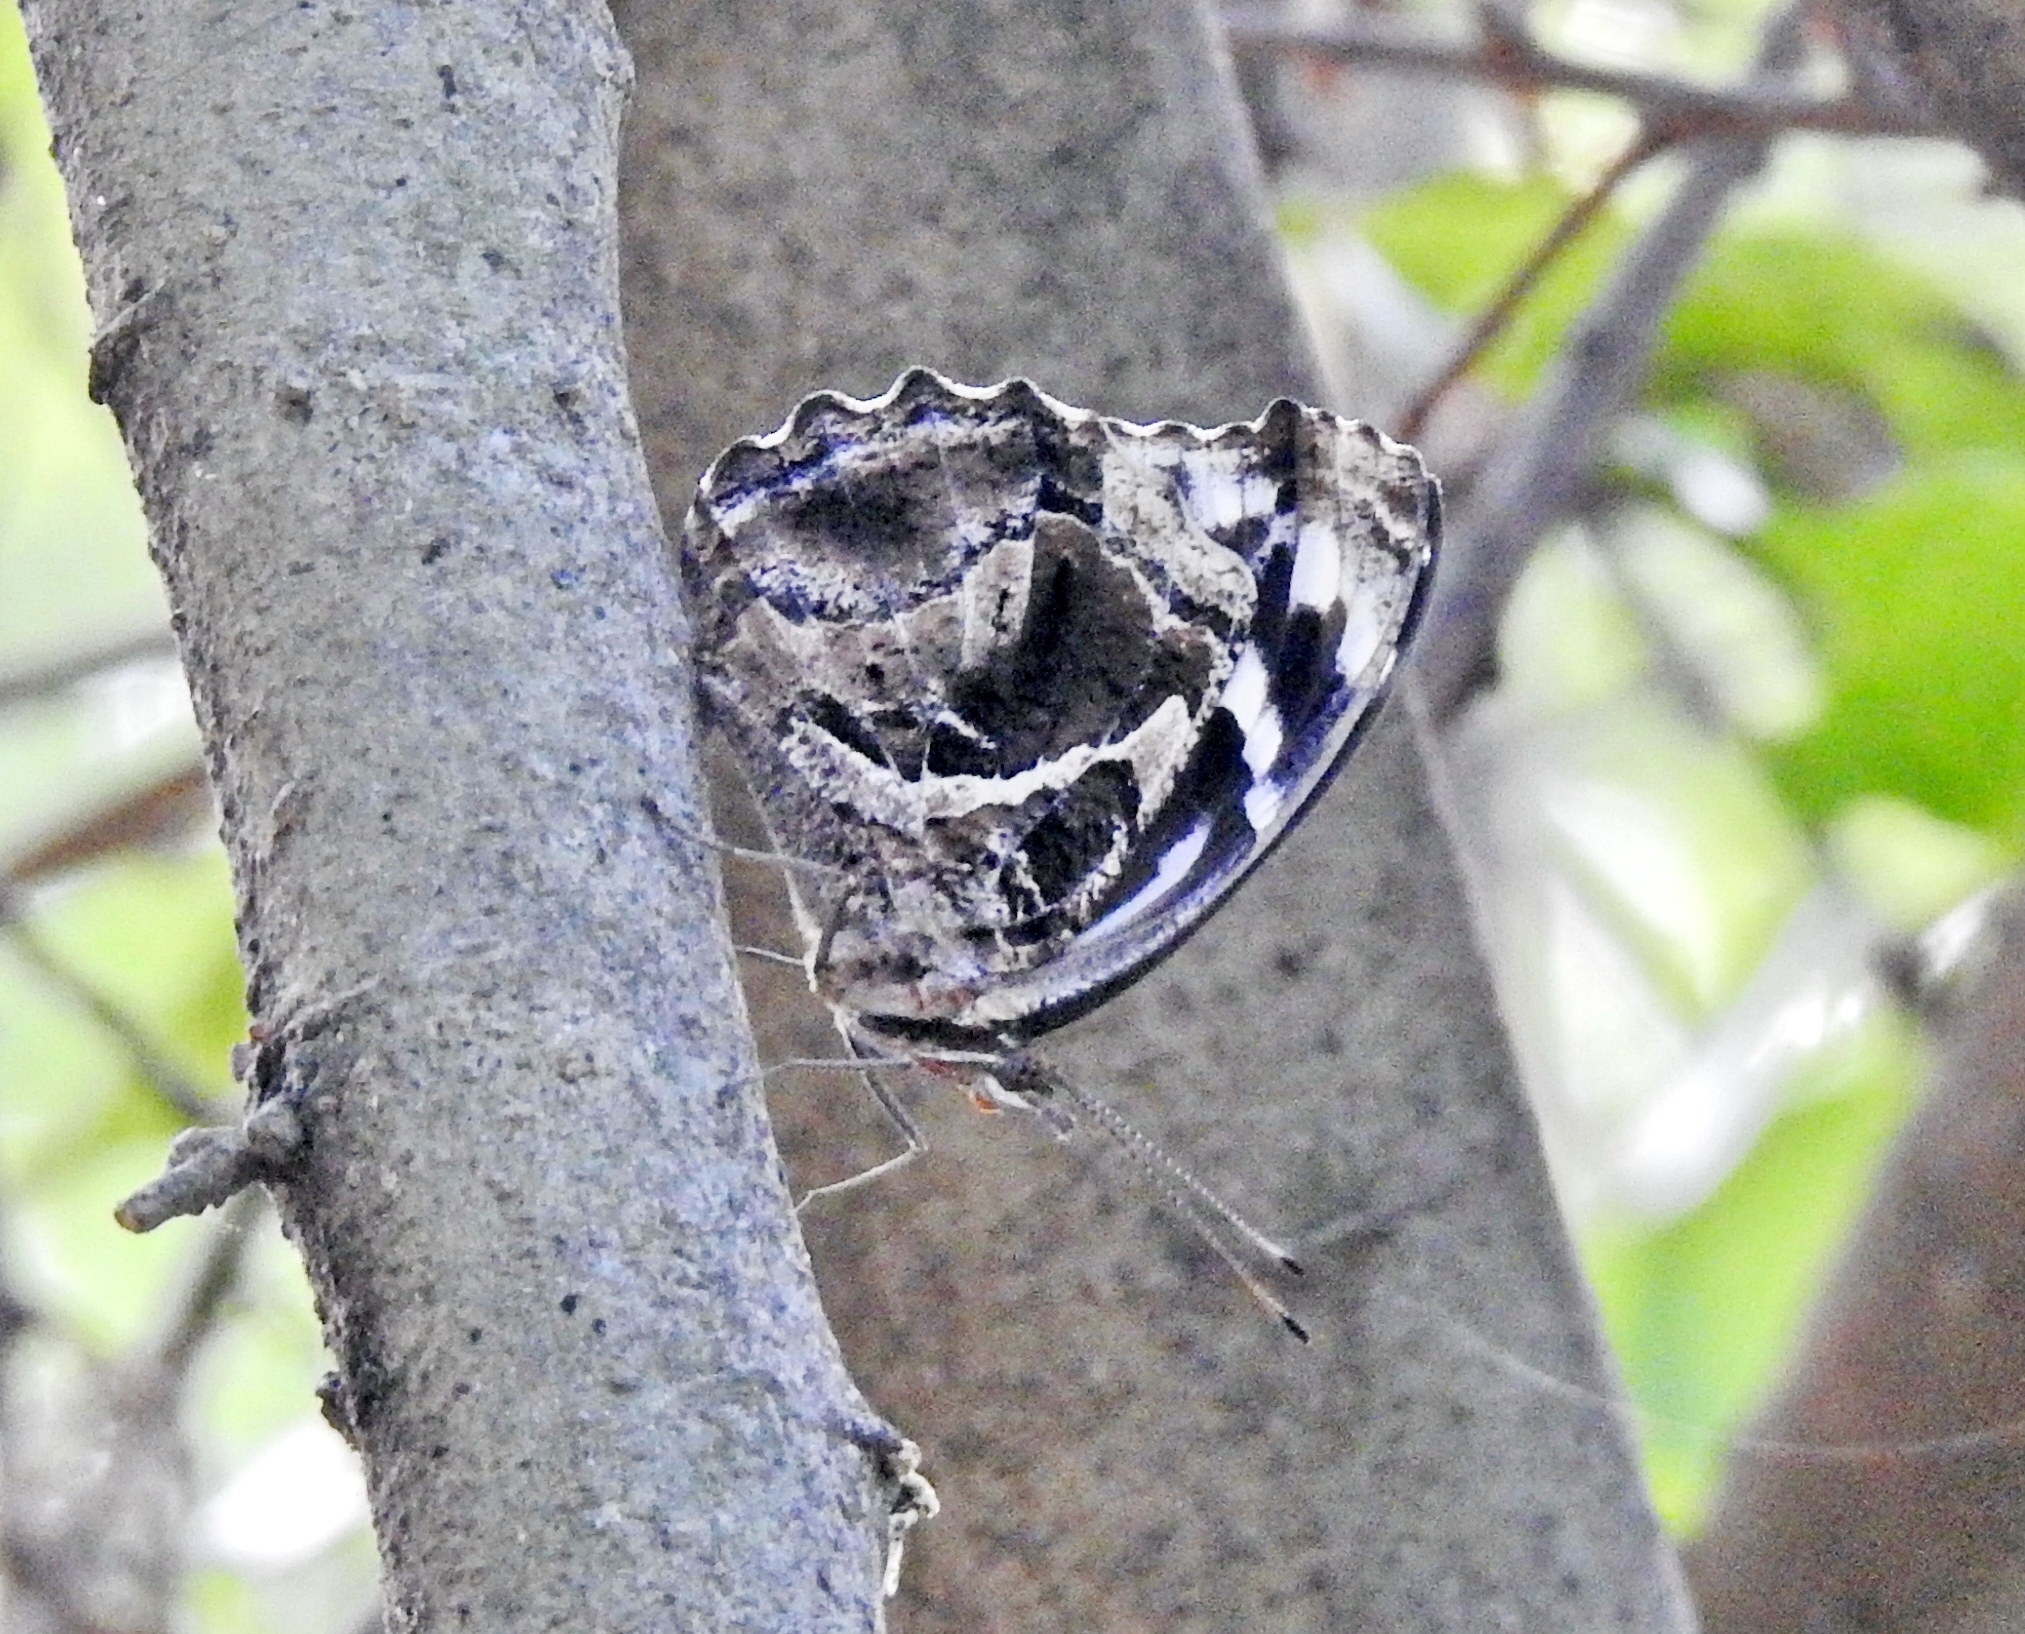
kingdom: Animalia
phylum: Arthropoda
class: Insecta
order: Lepidoptera
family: Nymphalidae
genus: Myscelia
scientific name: Myscelia ethusa
